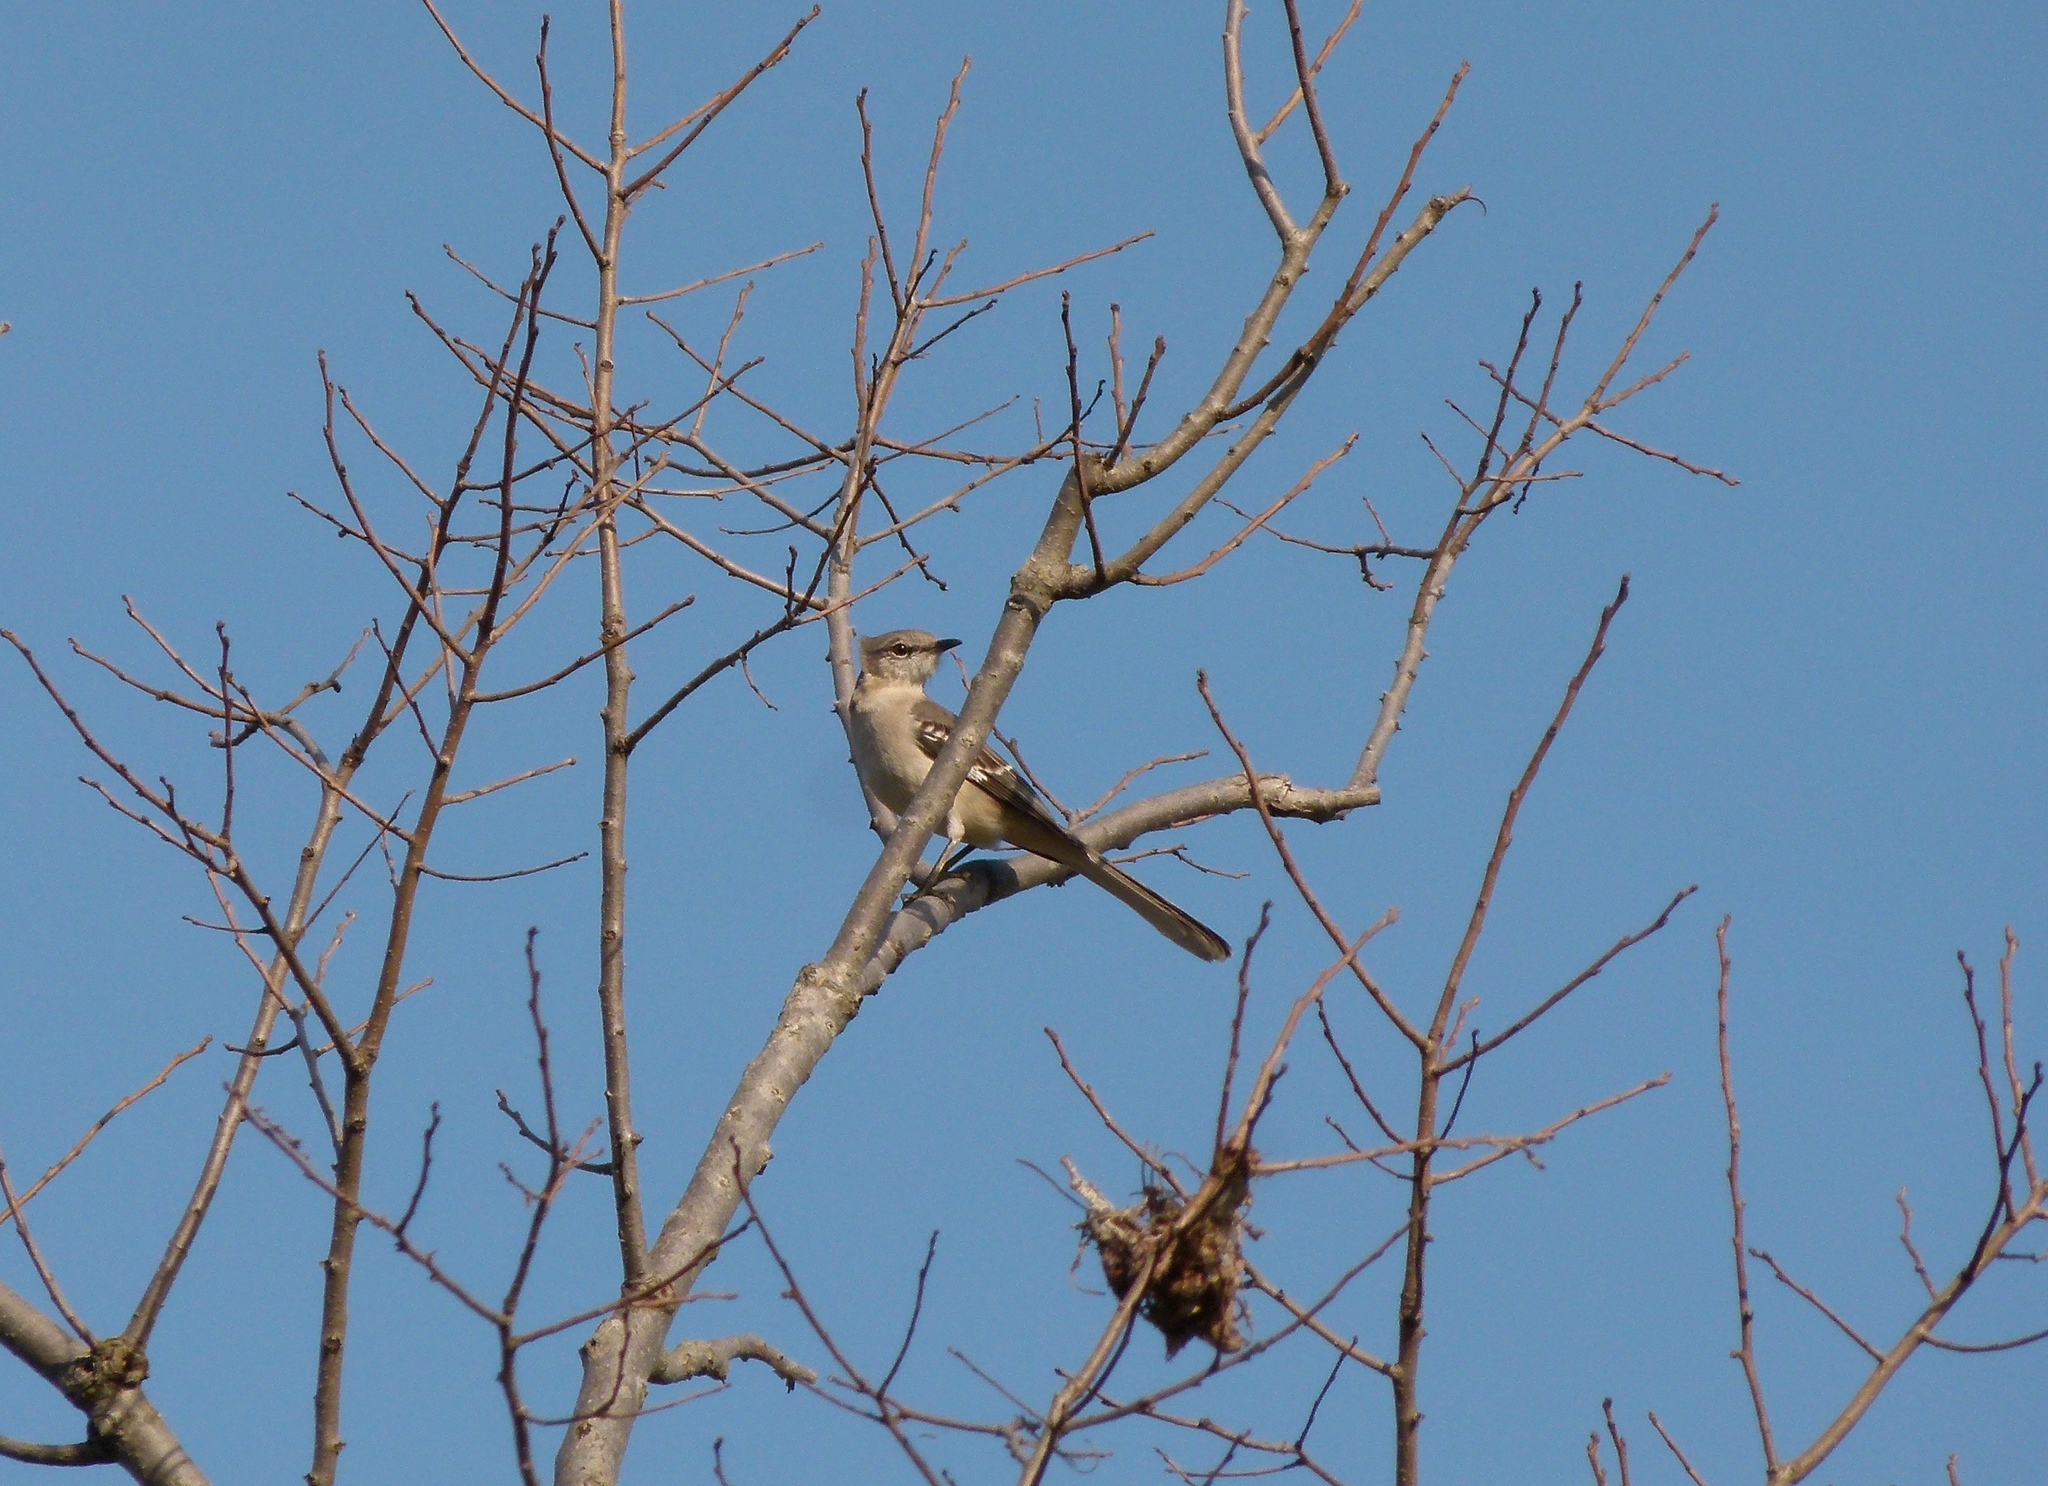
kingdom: Animalia
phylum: Chordata
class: Aves
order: Passeriformes
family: Mimidae
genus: Mimus
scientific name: Mimus polyglottos
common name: Northern mockingbird
